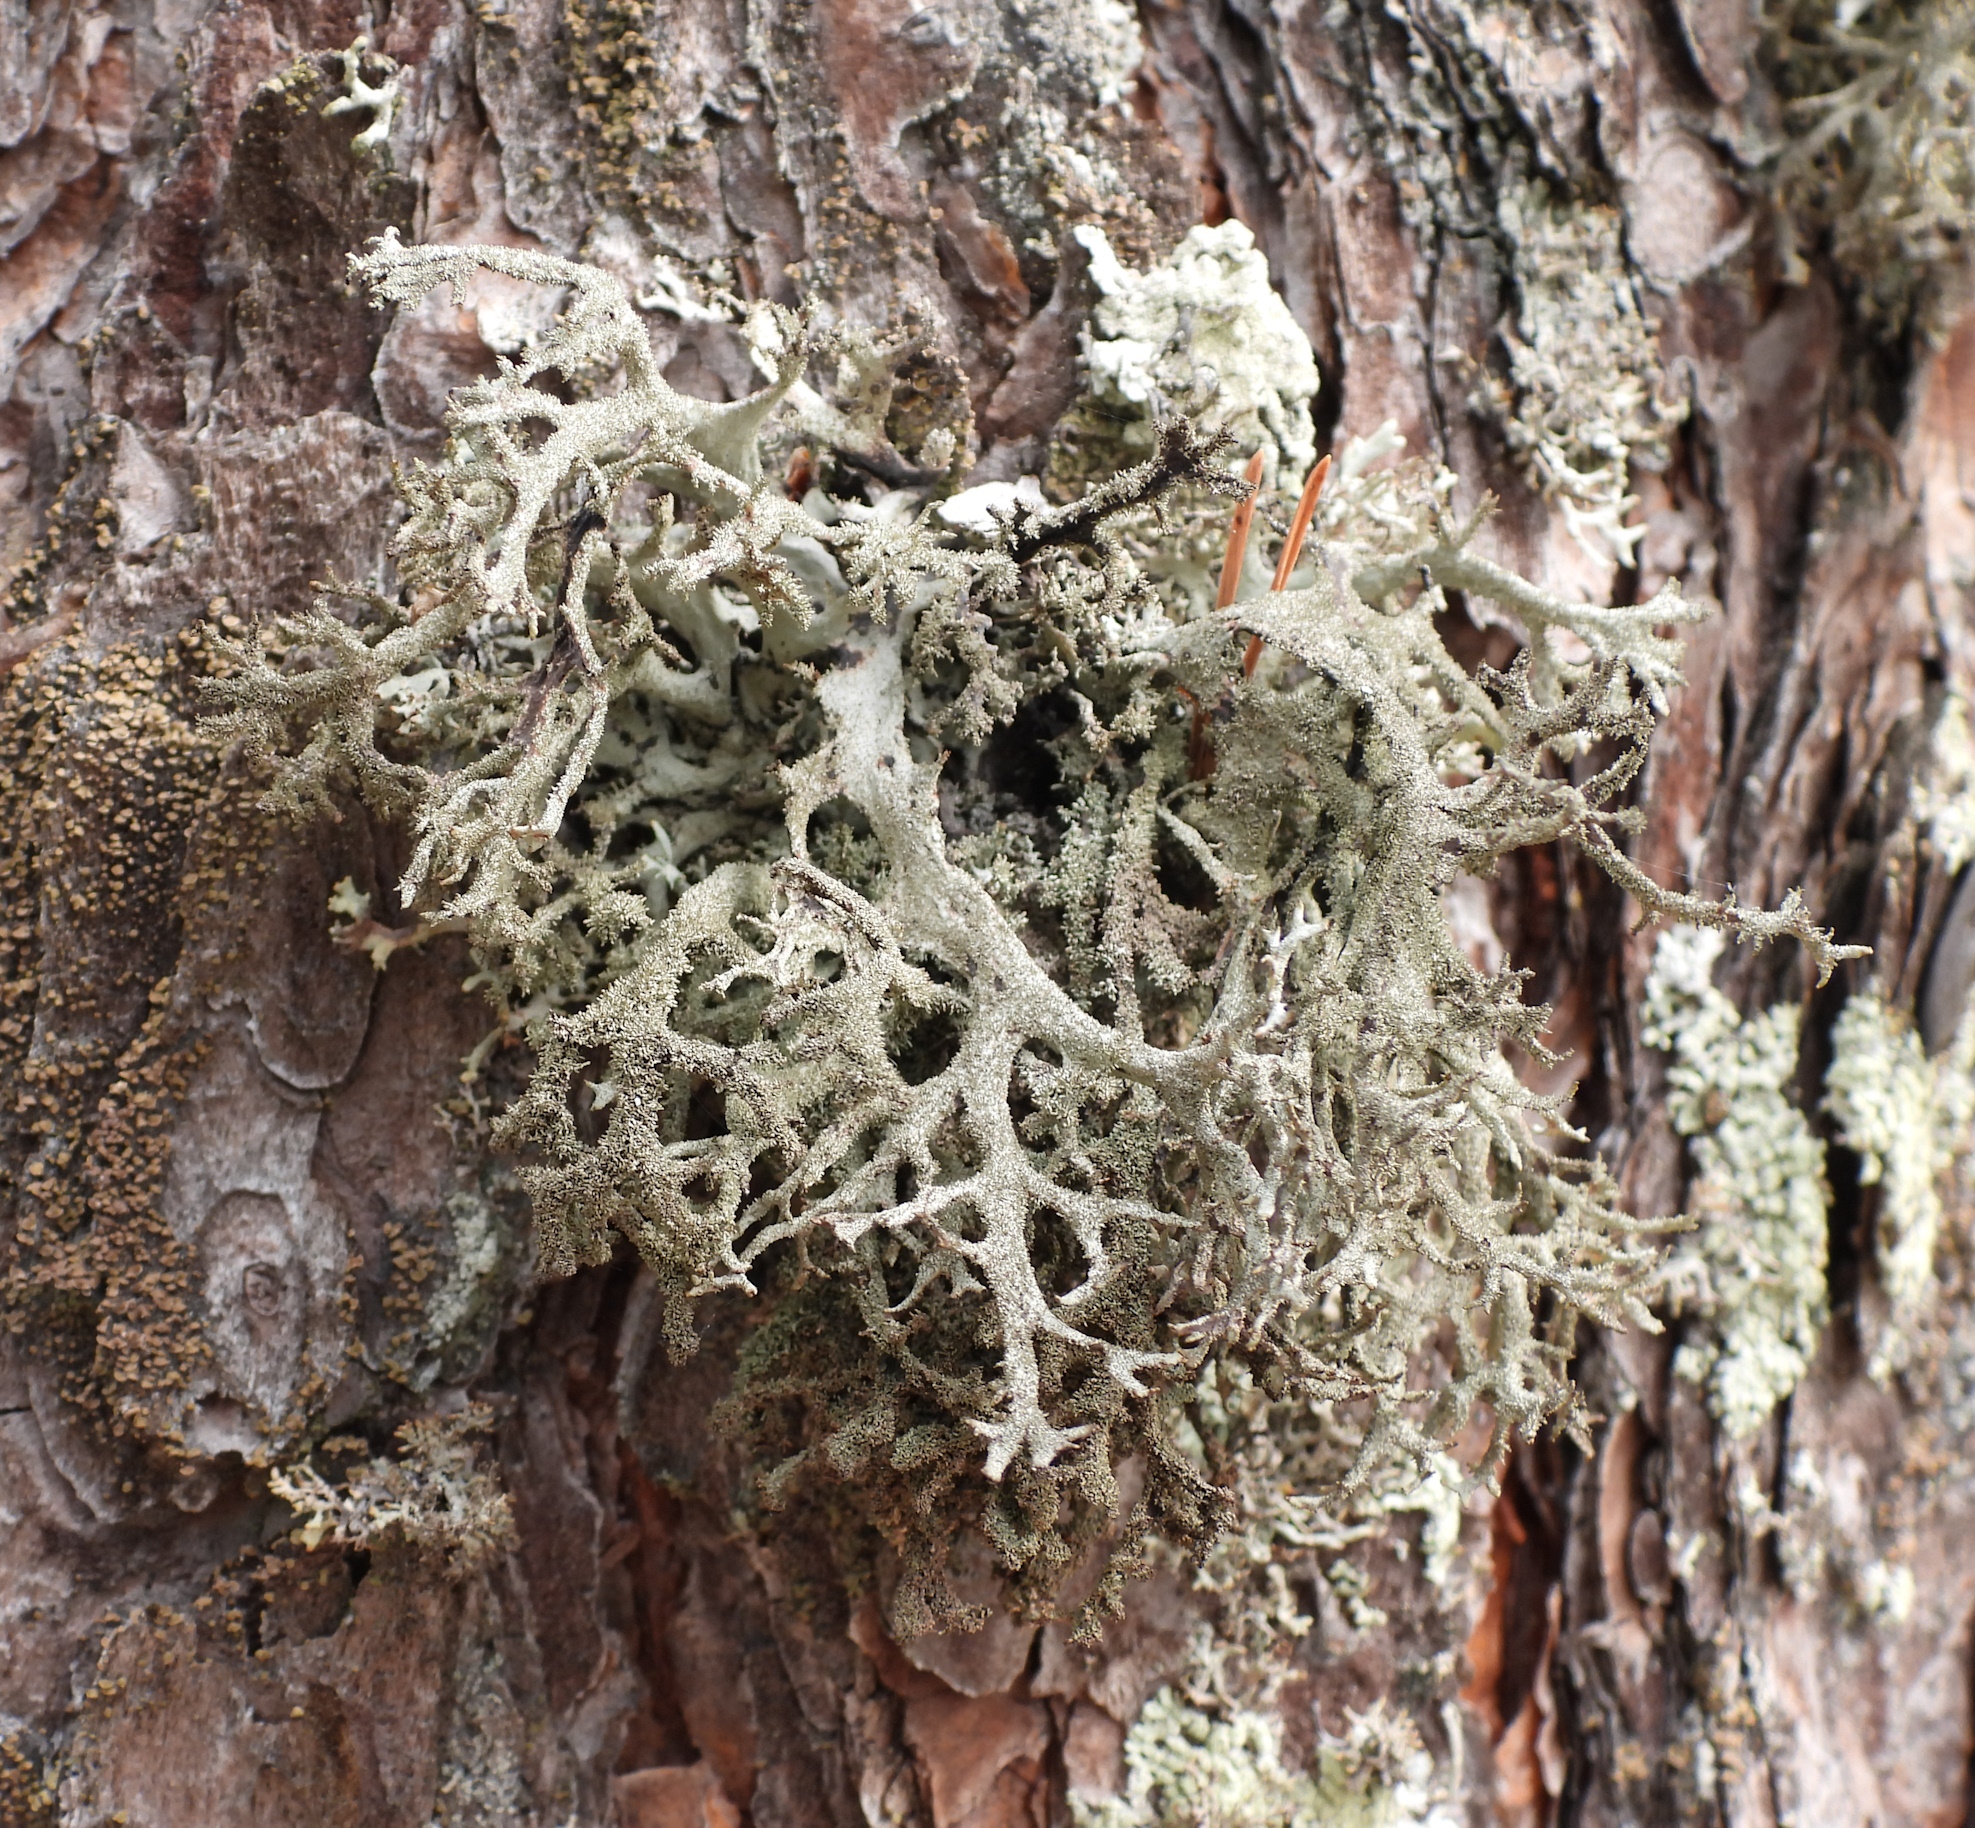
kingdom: Fungi
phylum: Ascomycota
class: Lecanoromycetes
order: Lecanorales
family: Parmeliaceae
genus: Pseudevernia
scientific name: Pseudevernia furfuracea
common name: Tree moss
